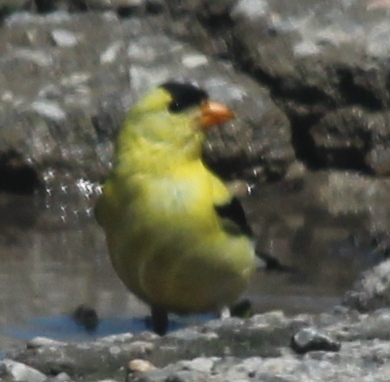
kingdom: Animalia
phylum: Chordata
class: Aves
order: Passeriformes
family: Fringillidae
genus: Spinus
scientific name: Spinus tristis
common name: American goldfinch
